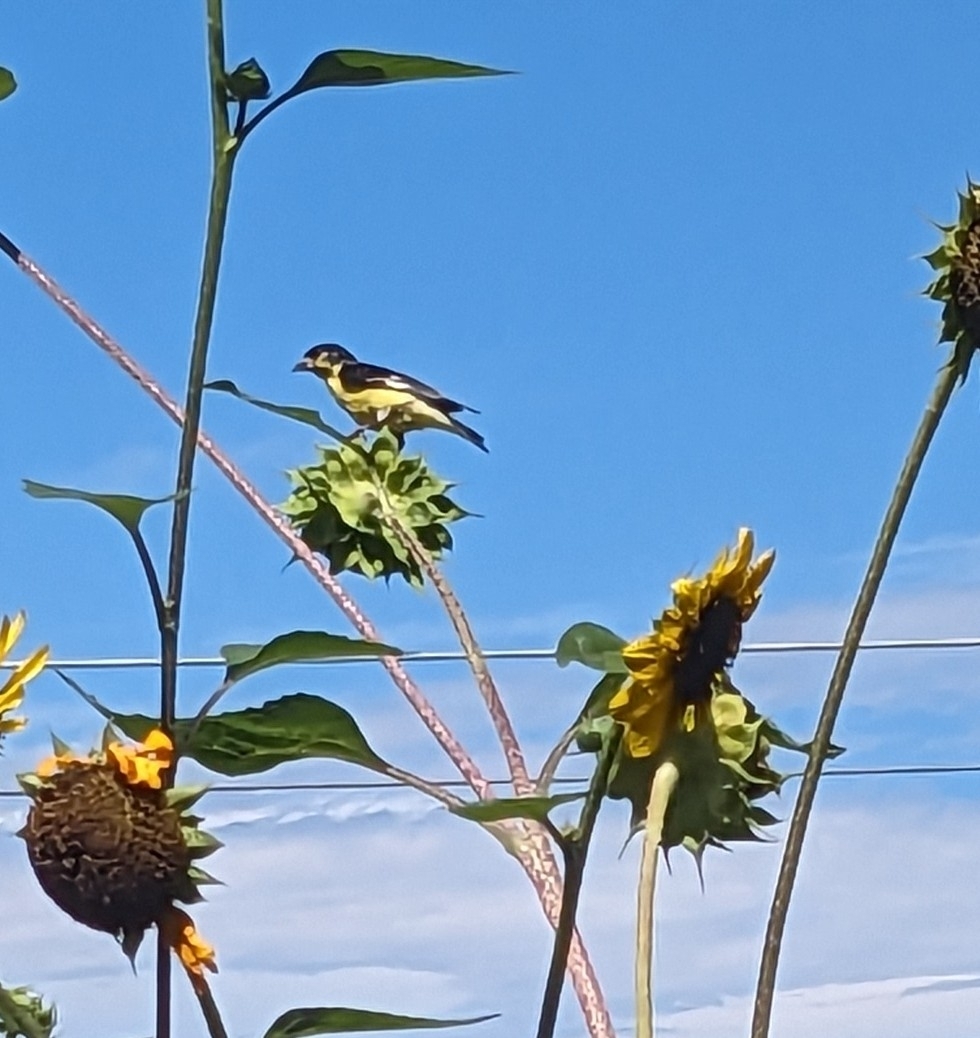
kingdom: Animalia
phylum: Chordata
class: Aves
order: Passeriformes
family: Fringillidae
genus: Spinus
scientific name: Spinus psaltria
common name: Lesser goldfinch
